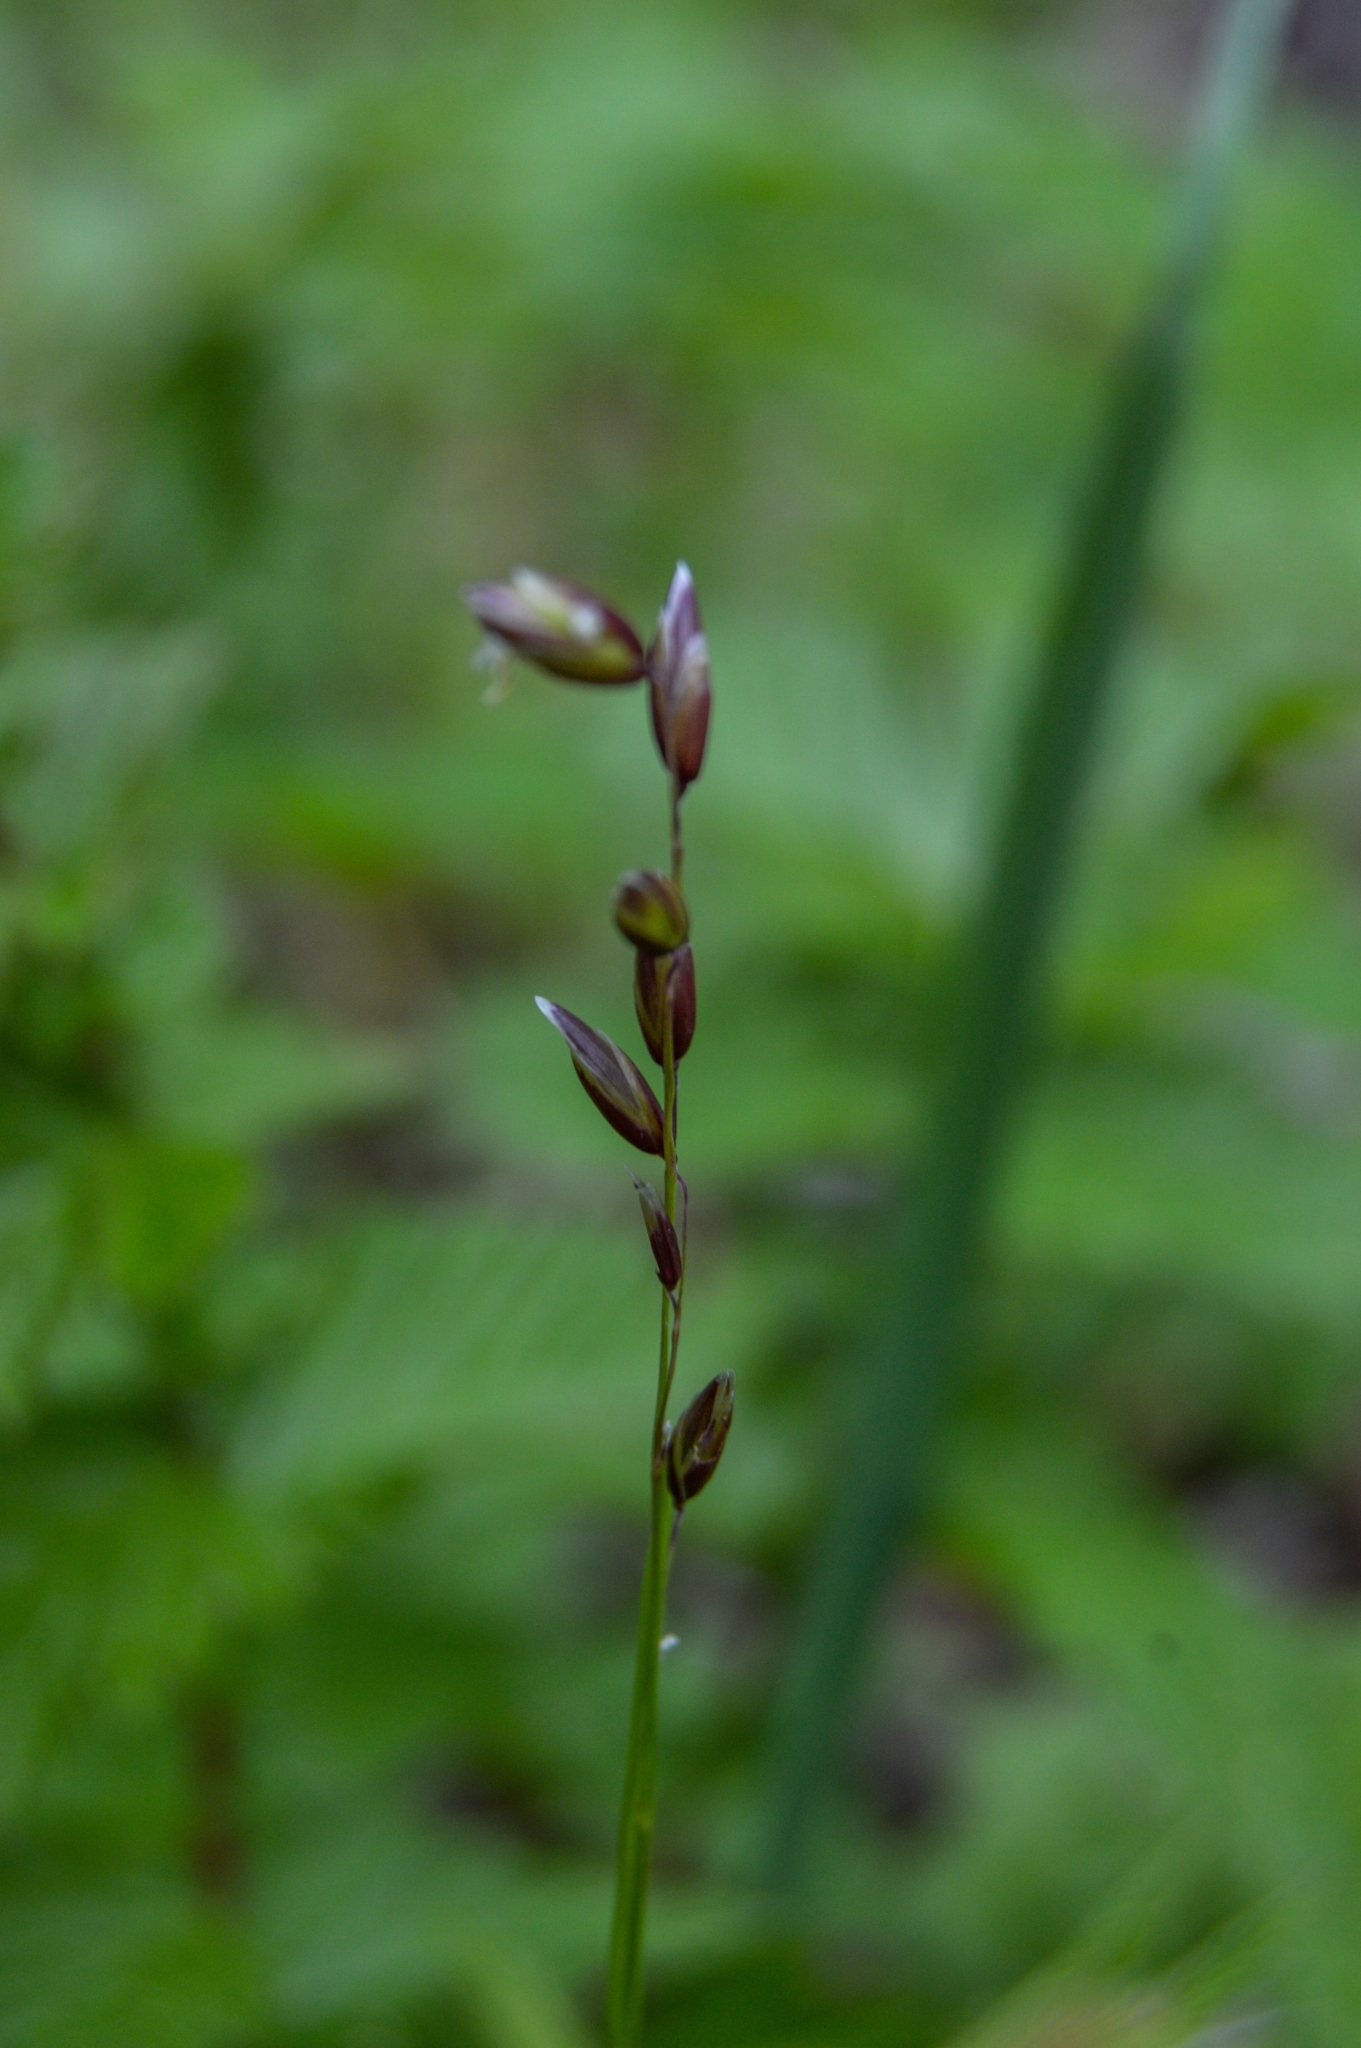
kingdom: Plantae
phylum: Tracheophyta
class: Liliopsida
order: Poales
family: Poaceae
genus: Melica
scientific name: Melica nutans
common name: Mountain melick
